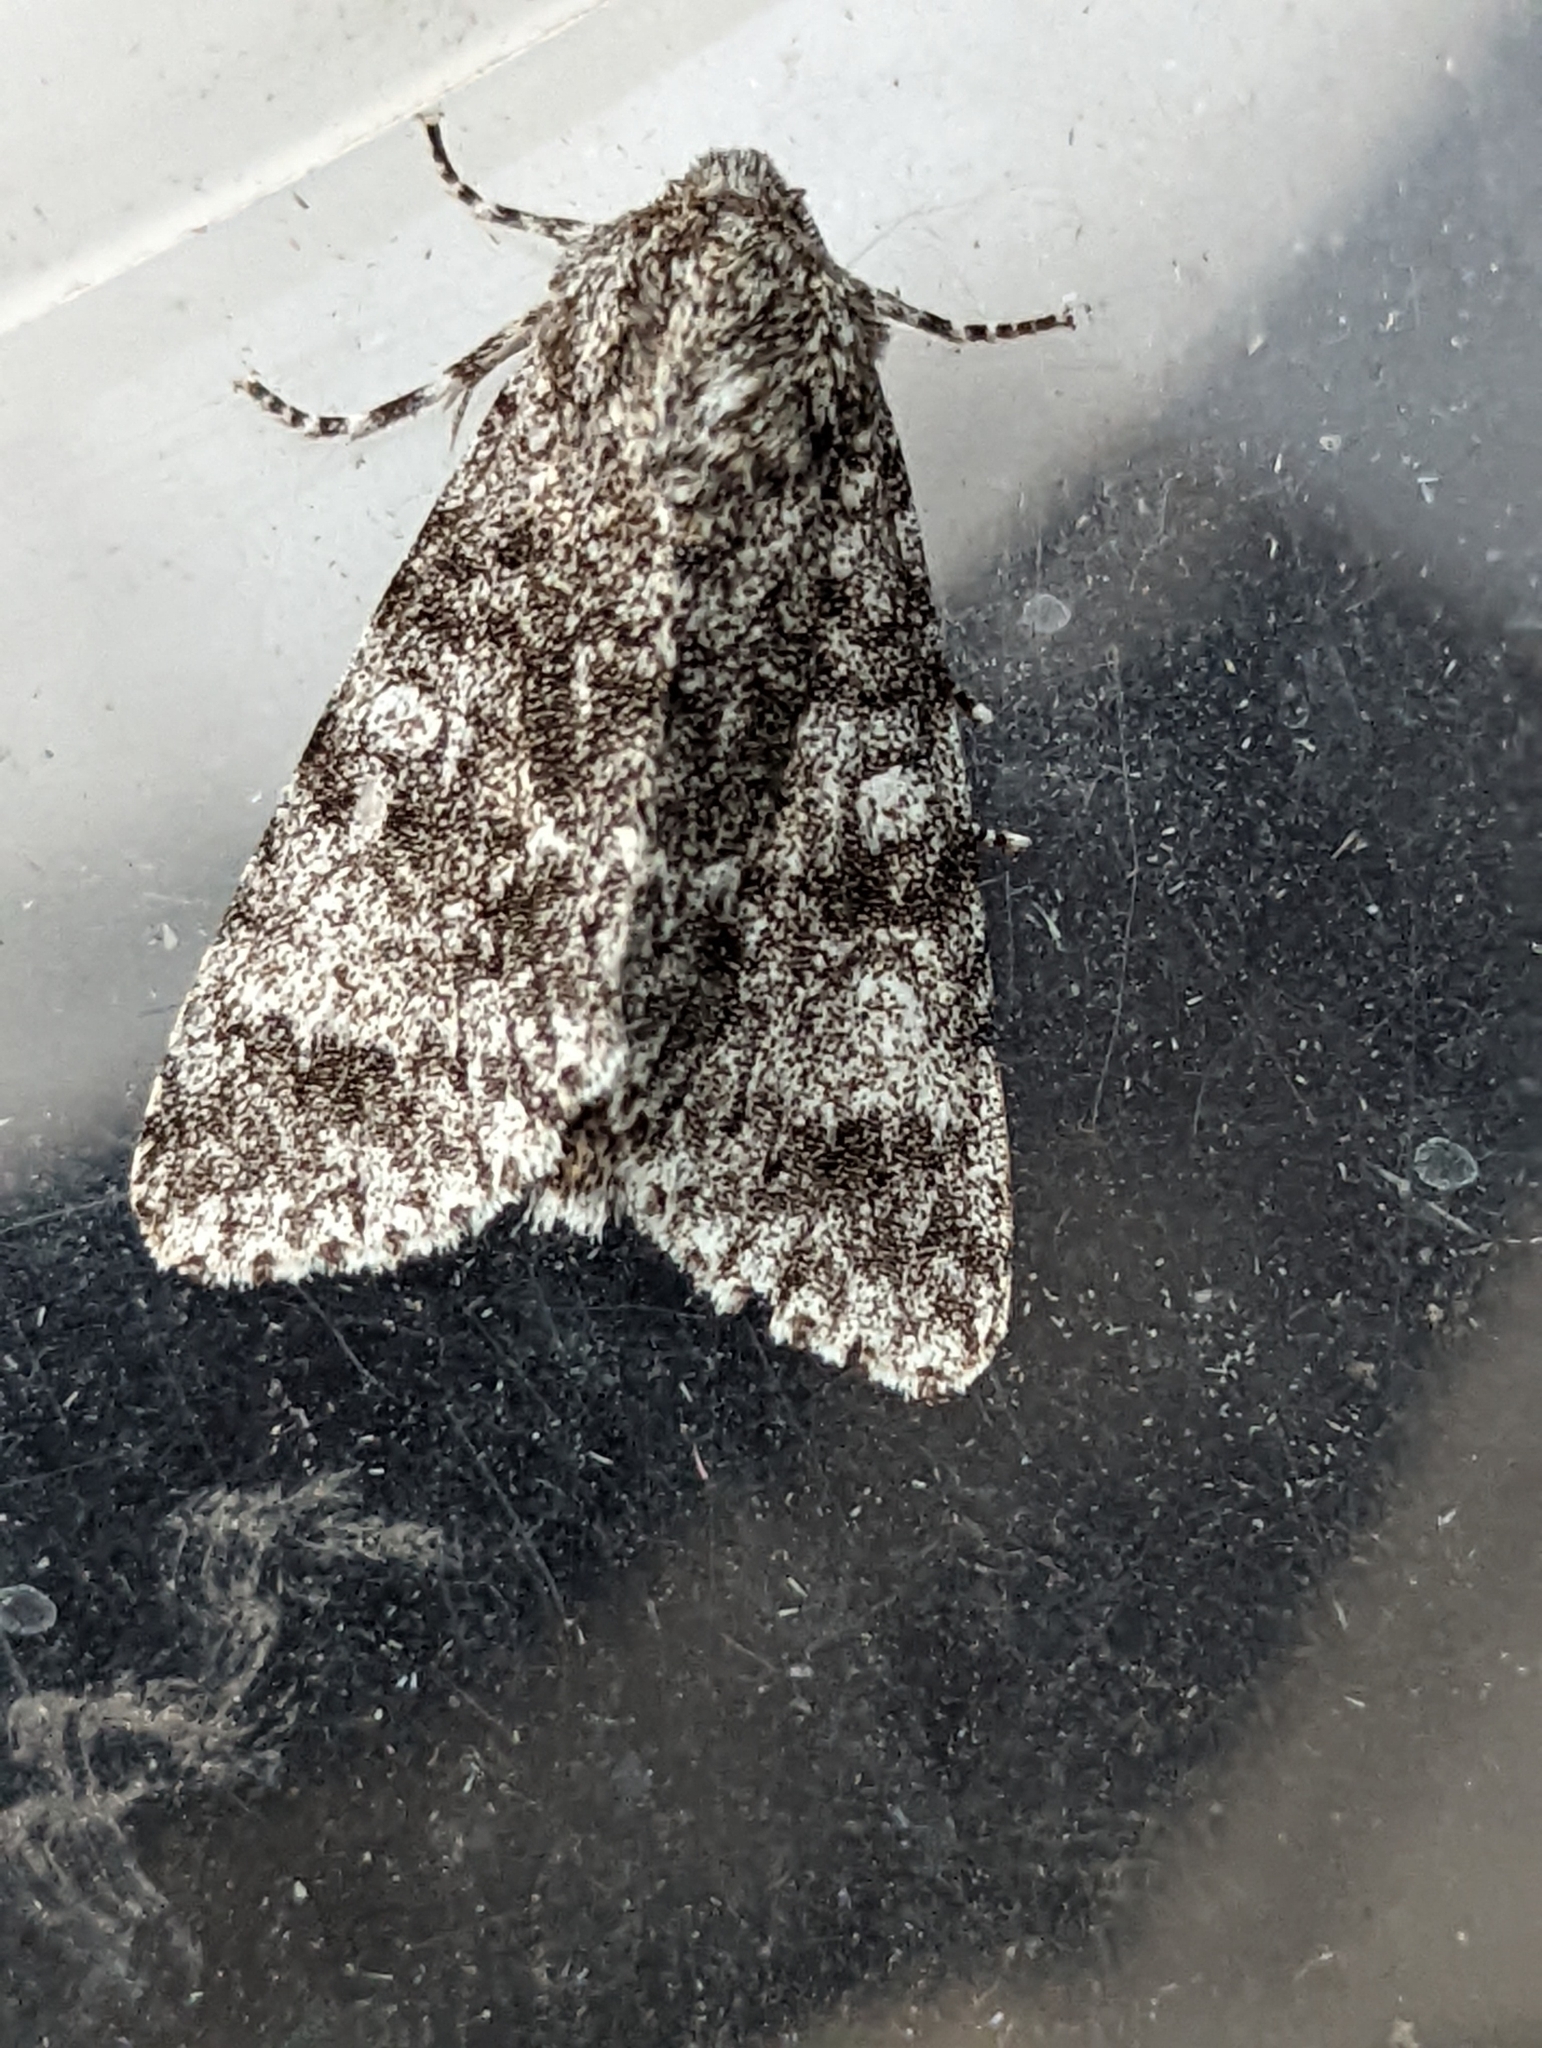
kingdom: Animalia
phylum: Arthropoda
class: Insecta
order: Lepidoptera
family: Noctuidae
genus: Acronicta
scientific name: Acronicta megacephala
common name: Poplar grey
